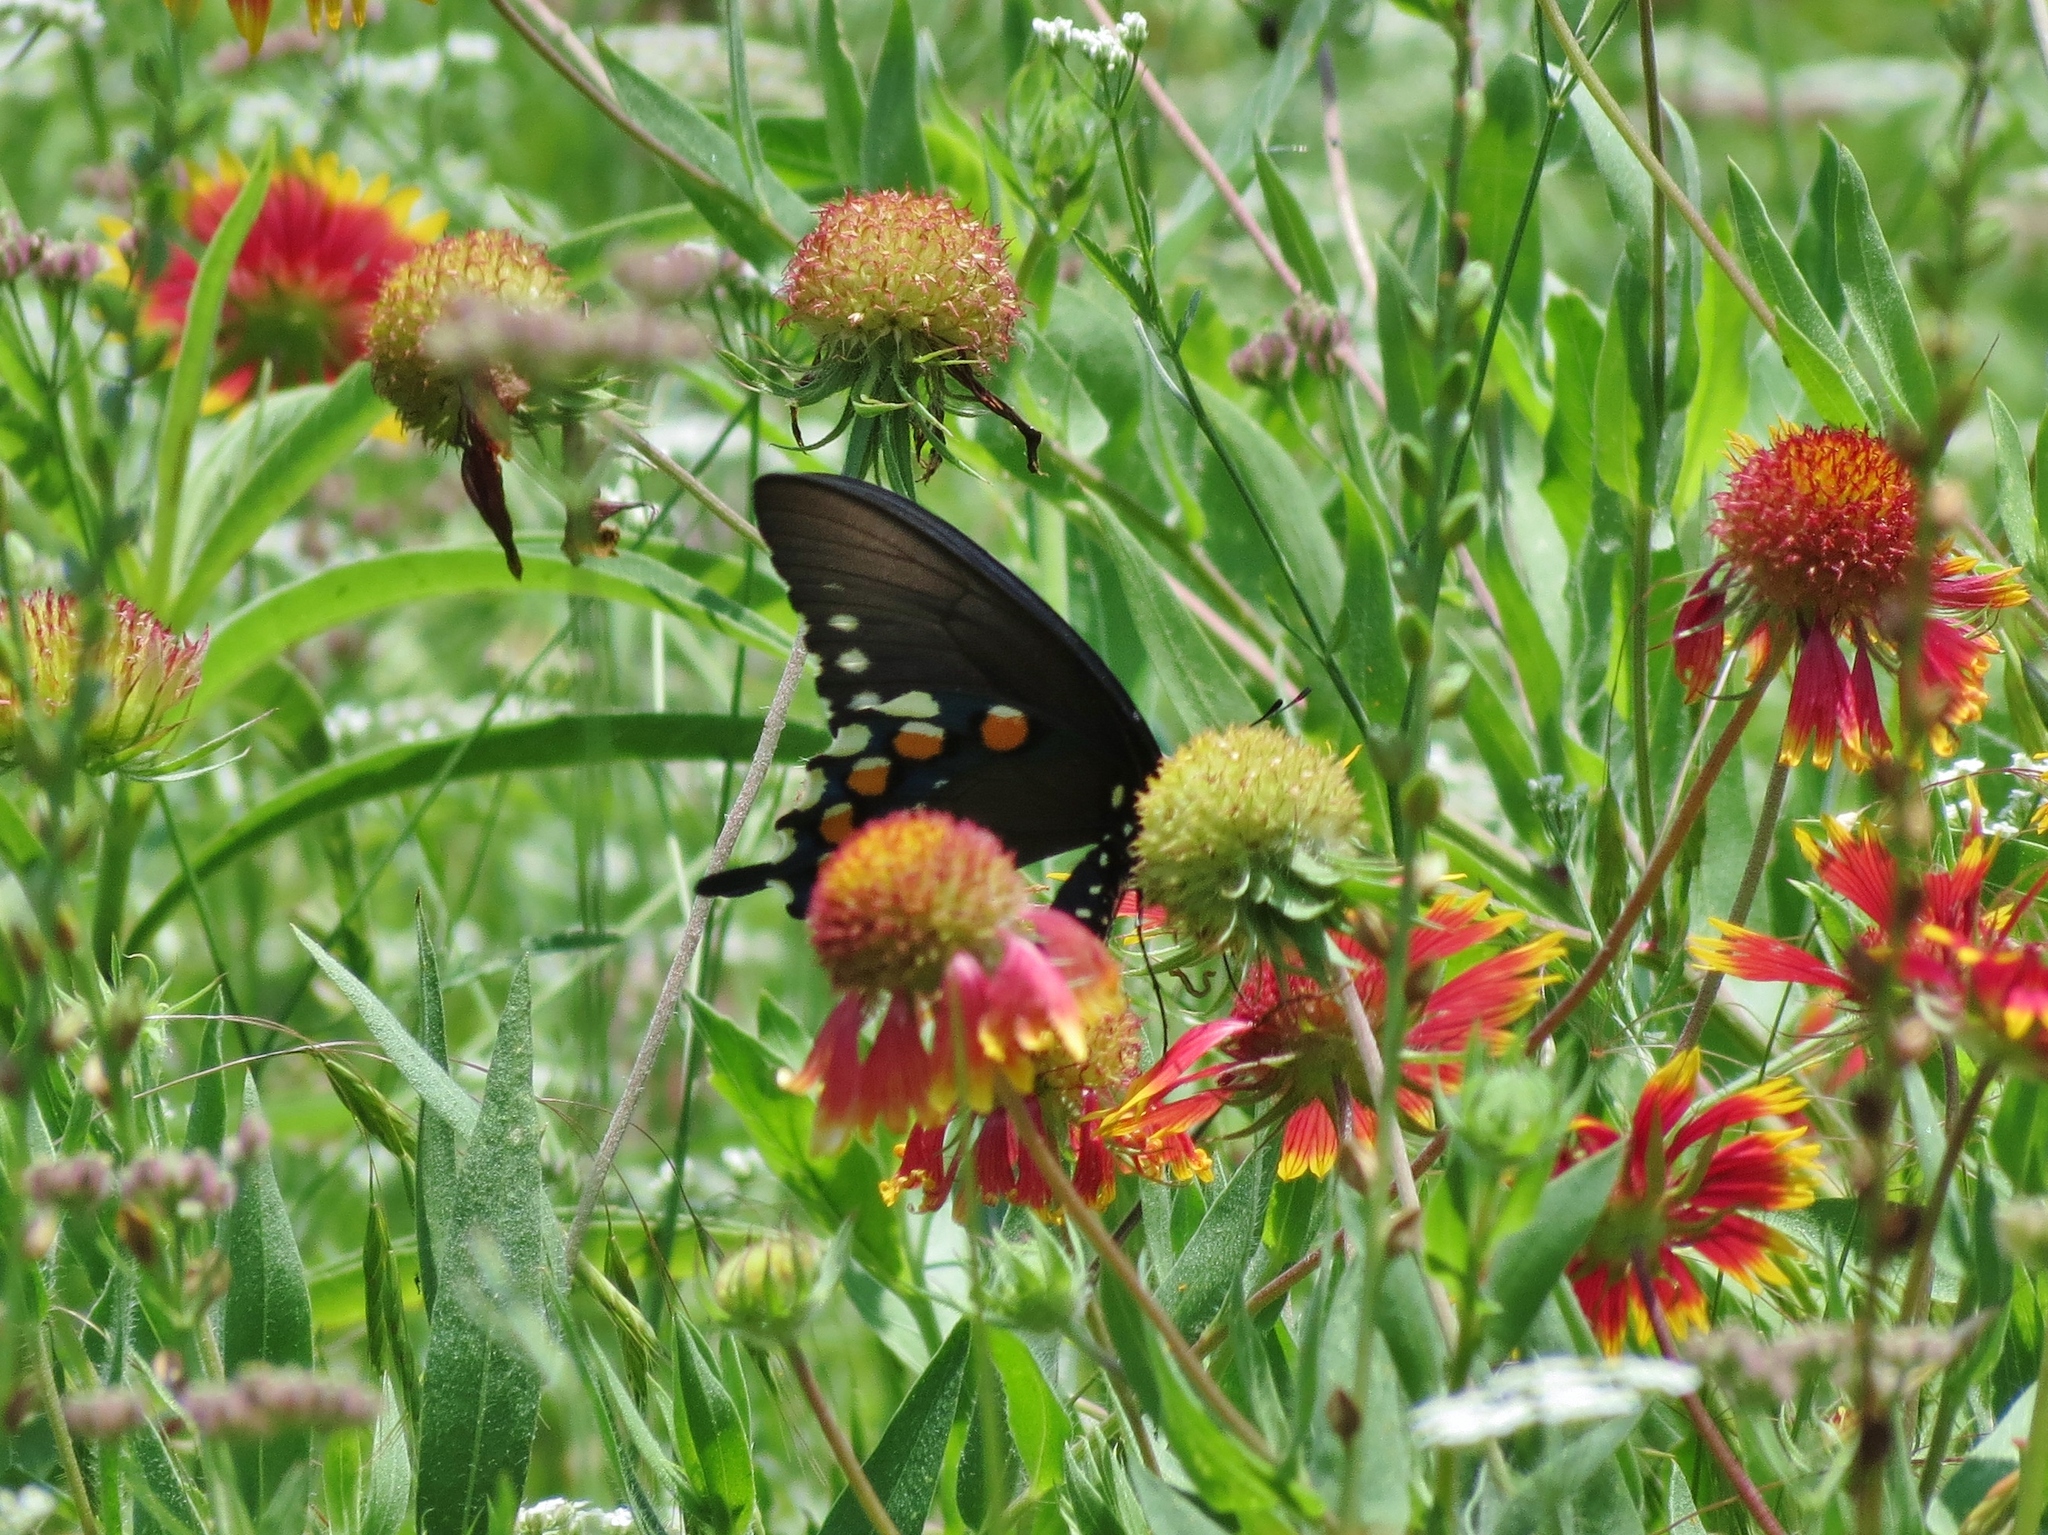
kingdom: Animalia
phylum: Arthropoda
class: Insecta
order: Lepidoptera
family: Papilionidae
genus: Battus
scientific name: Battus philenor
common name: Pipevine swallowtail
